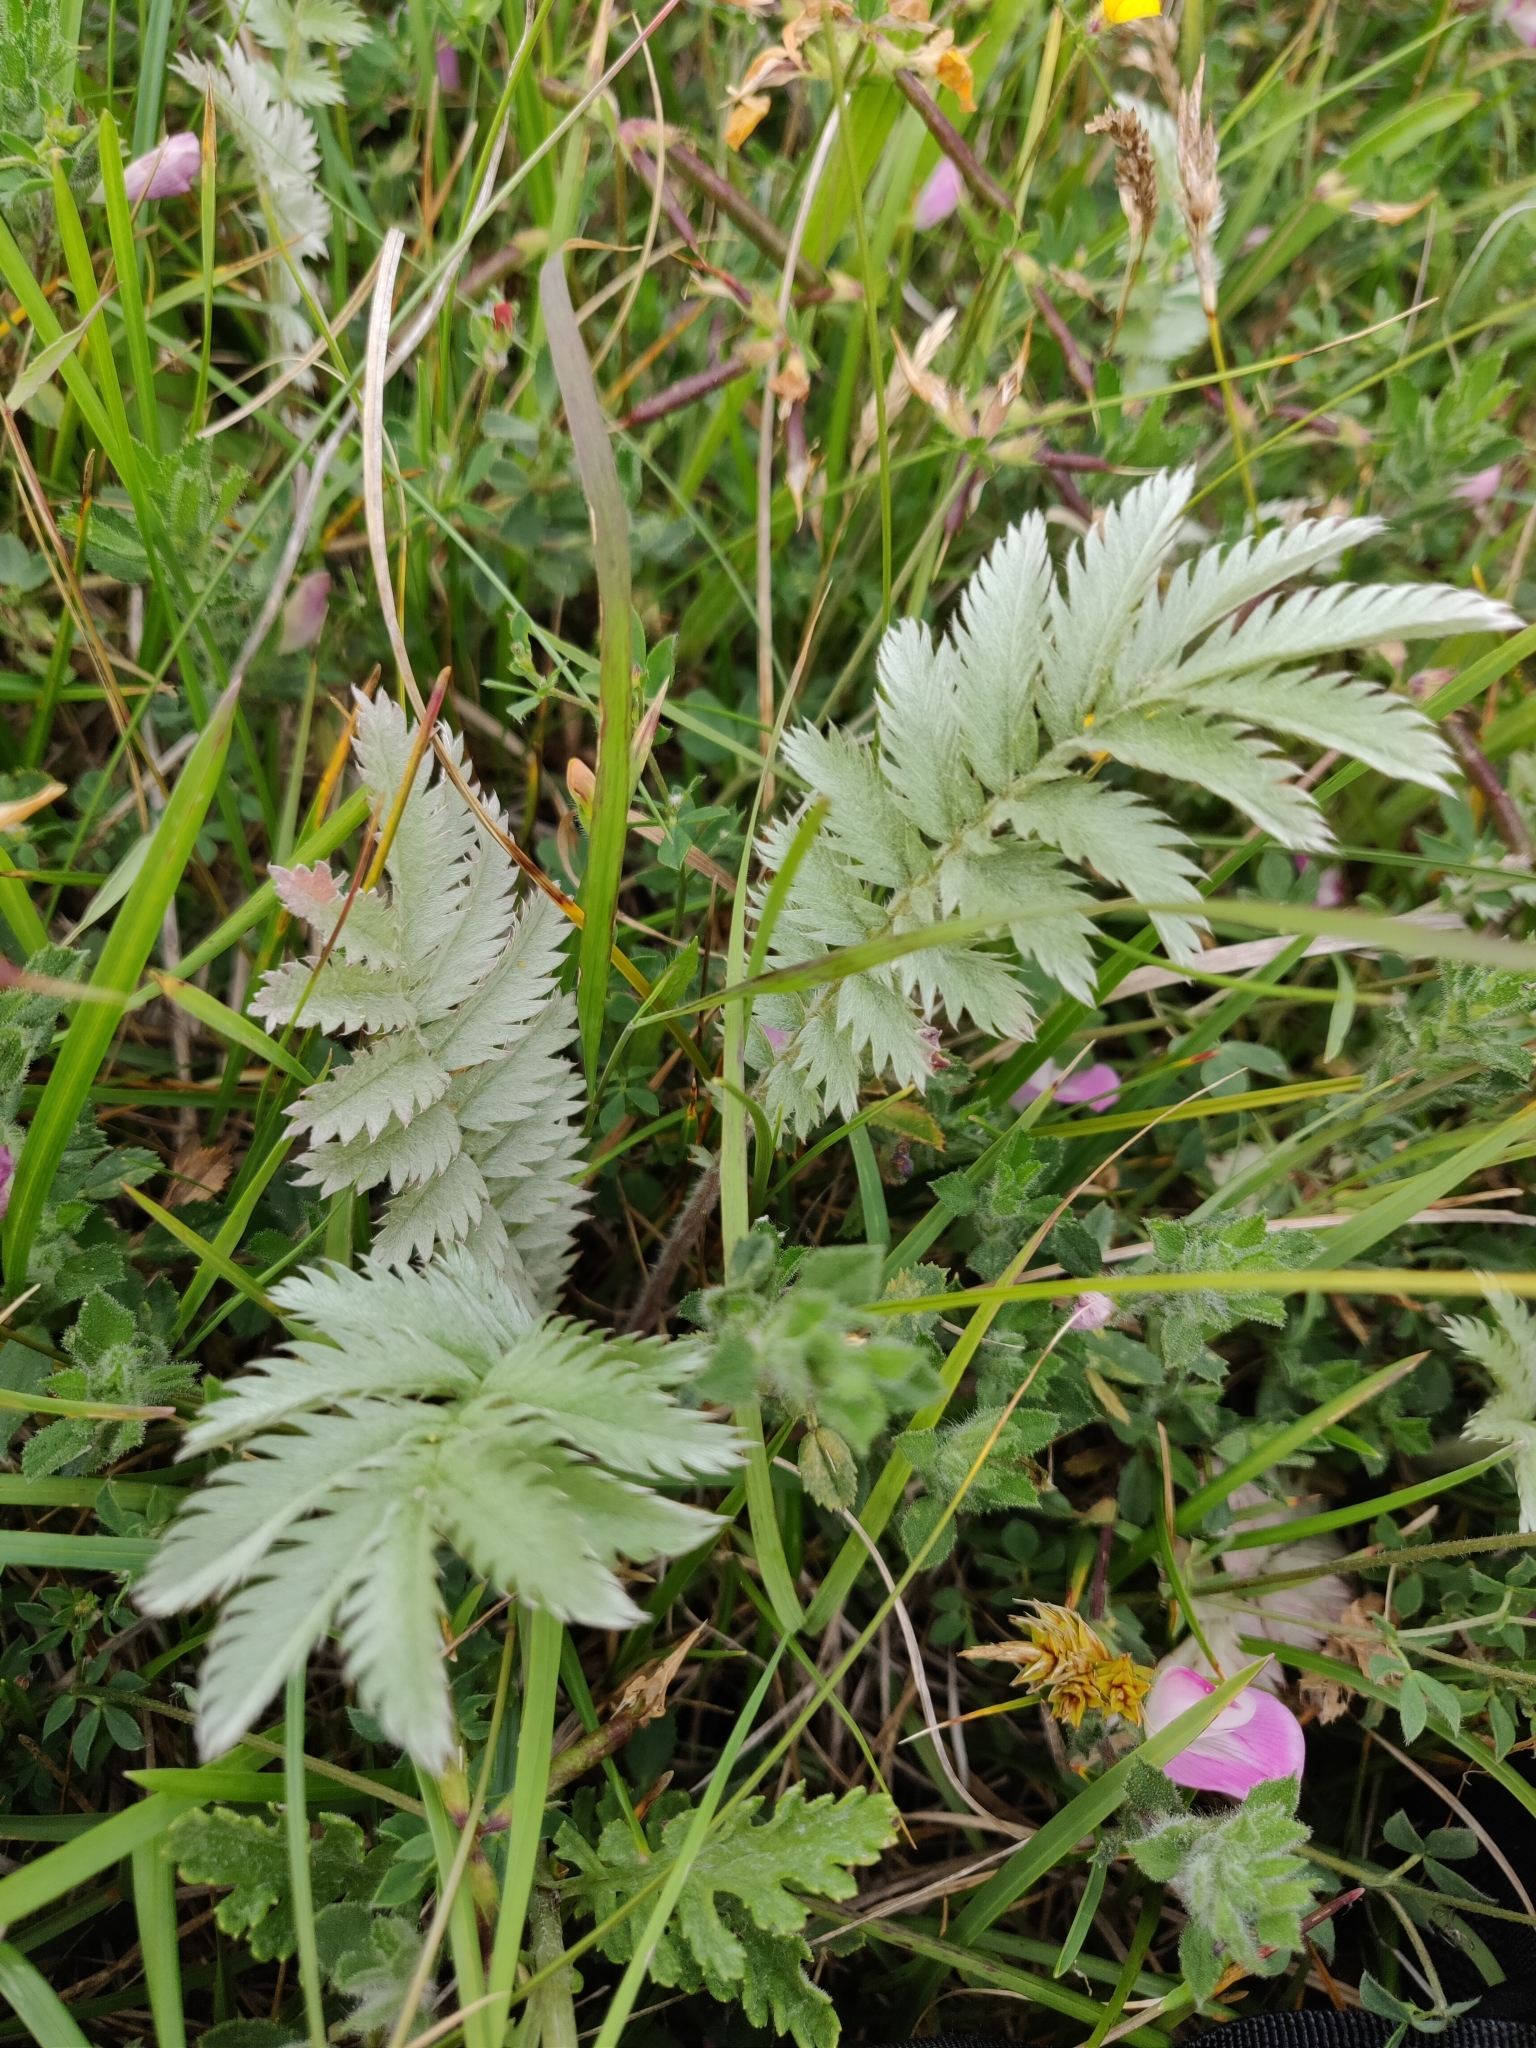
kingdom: Plantae
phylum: Tracheophyta
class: Magnoliopsida
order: Rosales
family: Rosaceae
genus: Argentina
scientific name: Argentina anserina
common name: Common silverweed
